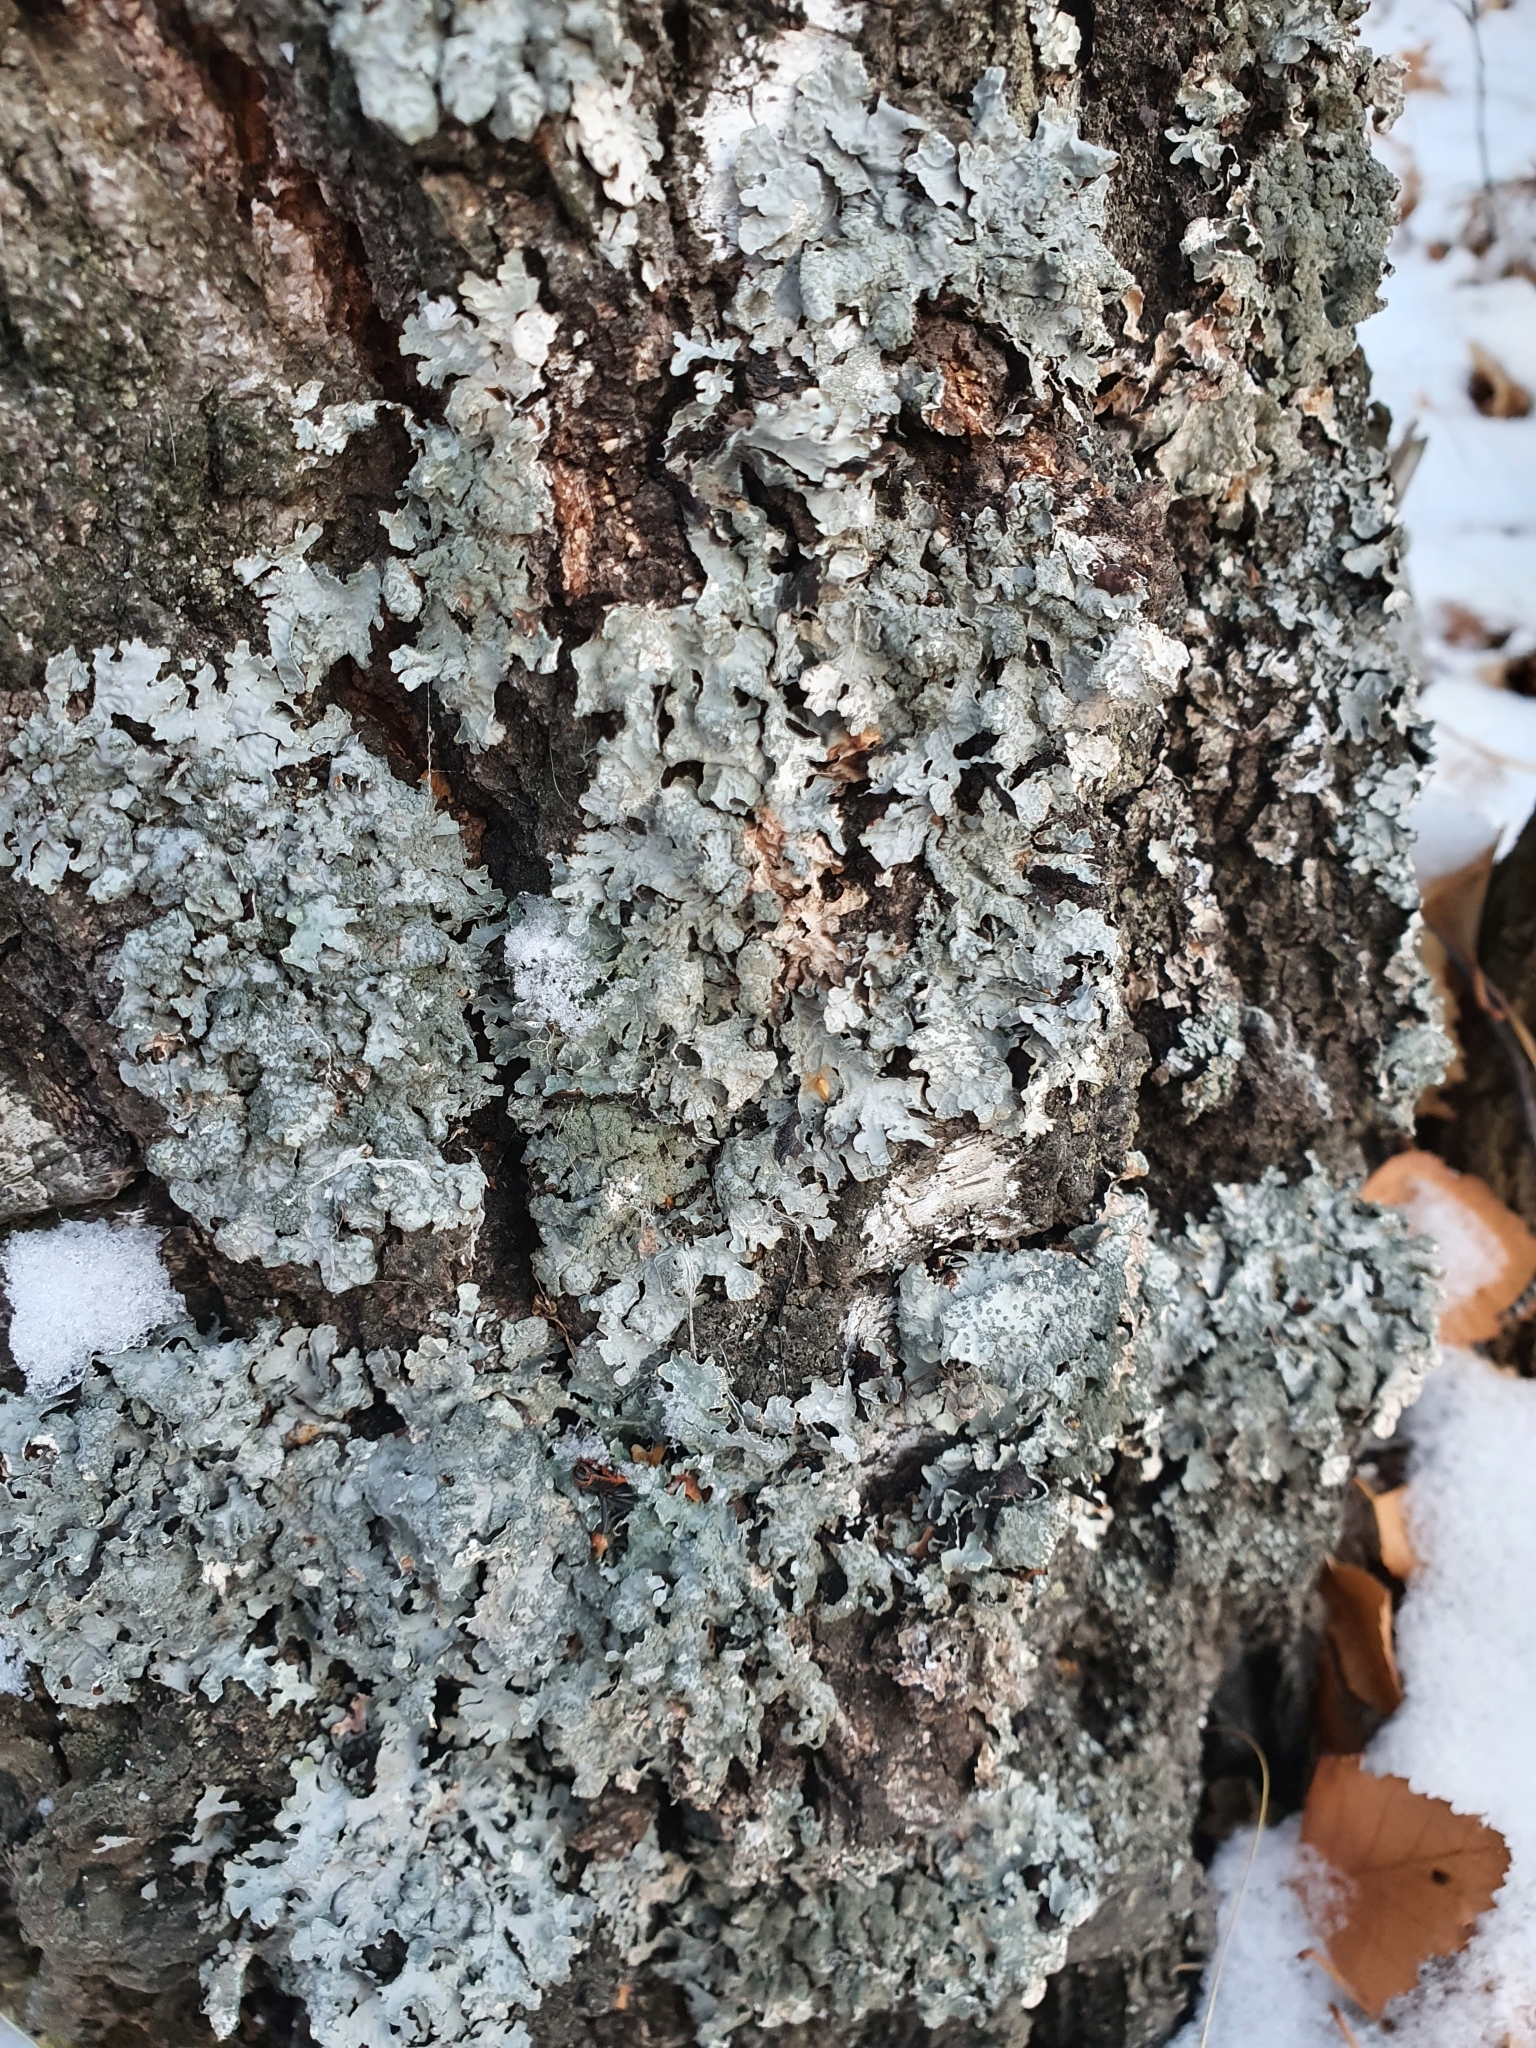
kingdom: Fungi
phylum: Ascomycota
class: Lecanoromycetes
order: Lecanorales
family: Parmeliaceae
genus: Parmelia
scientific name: Parmelia sulcata
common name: Netted shield lichen
